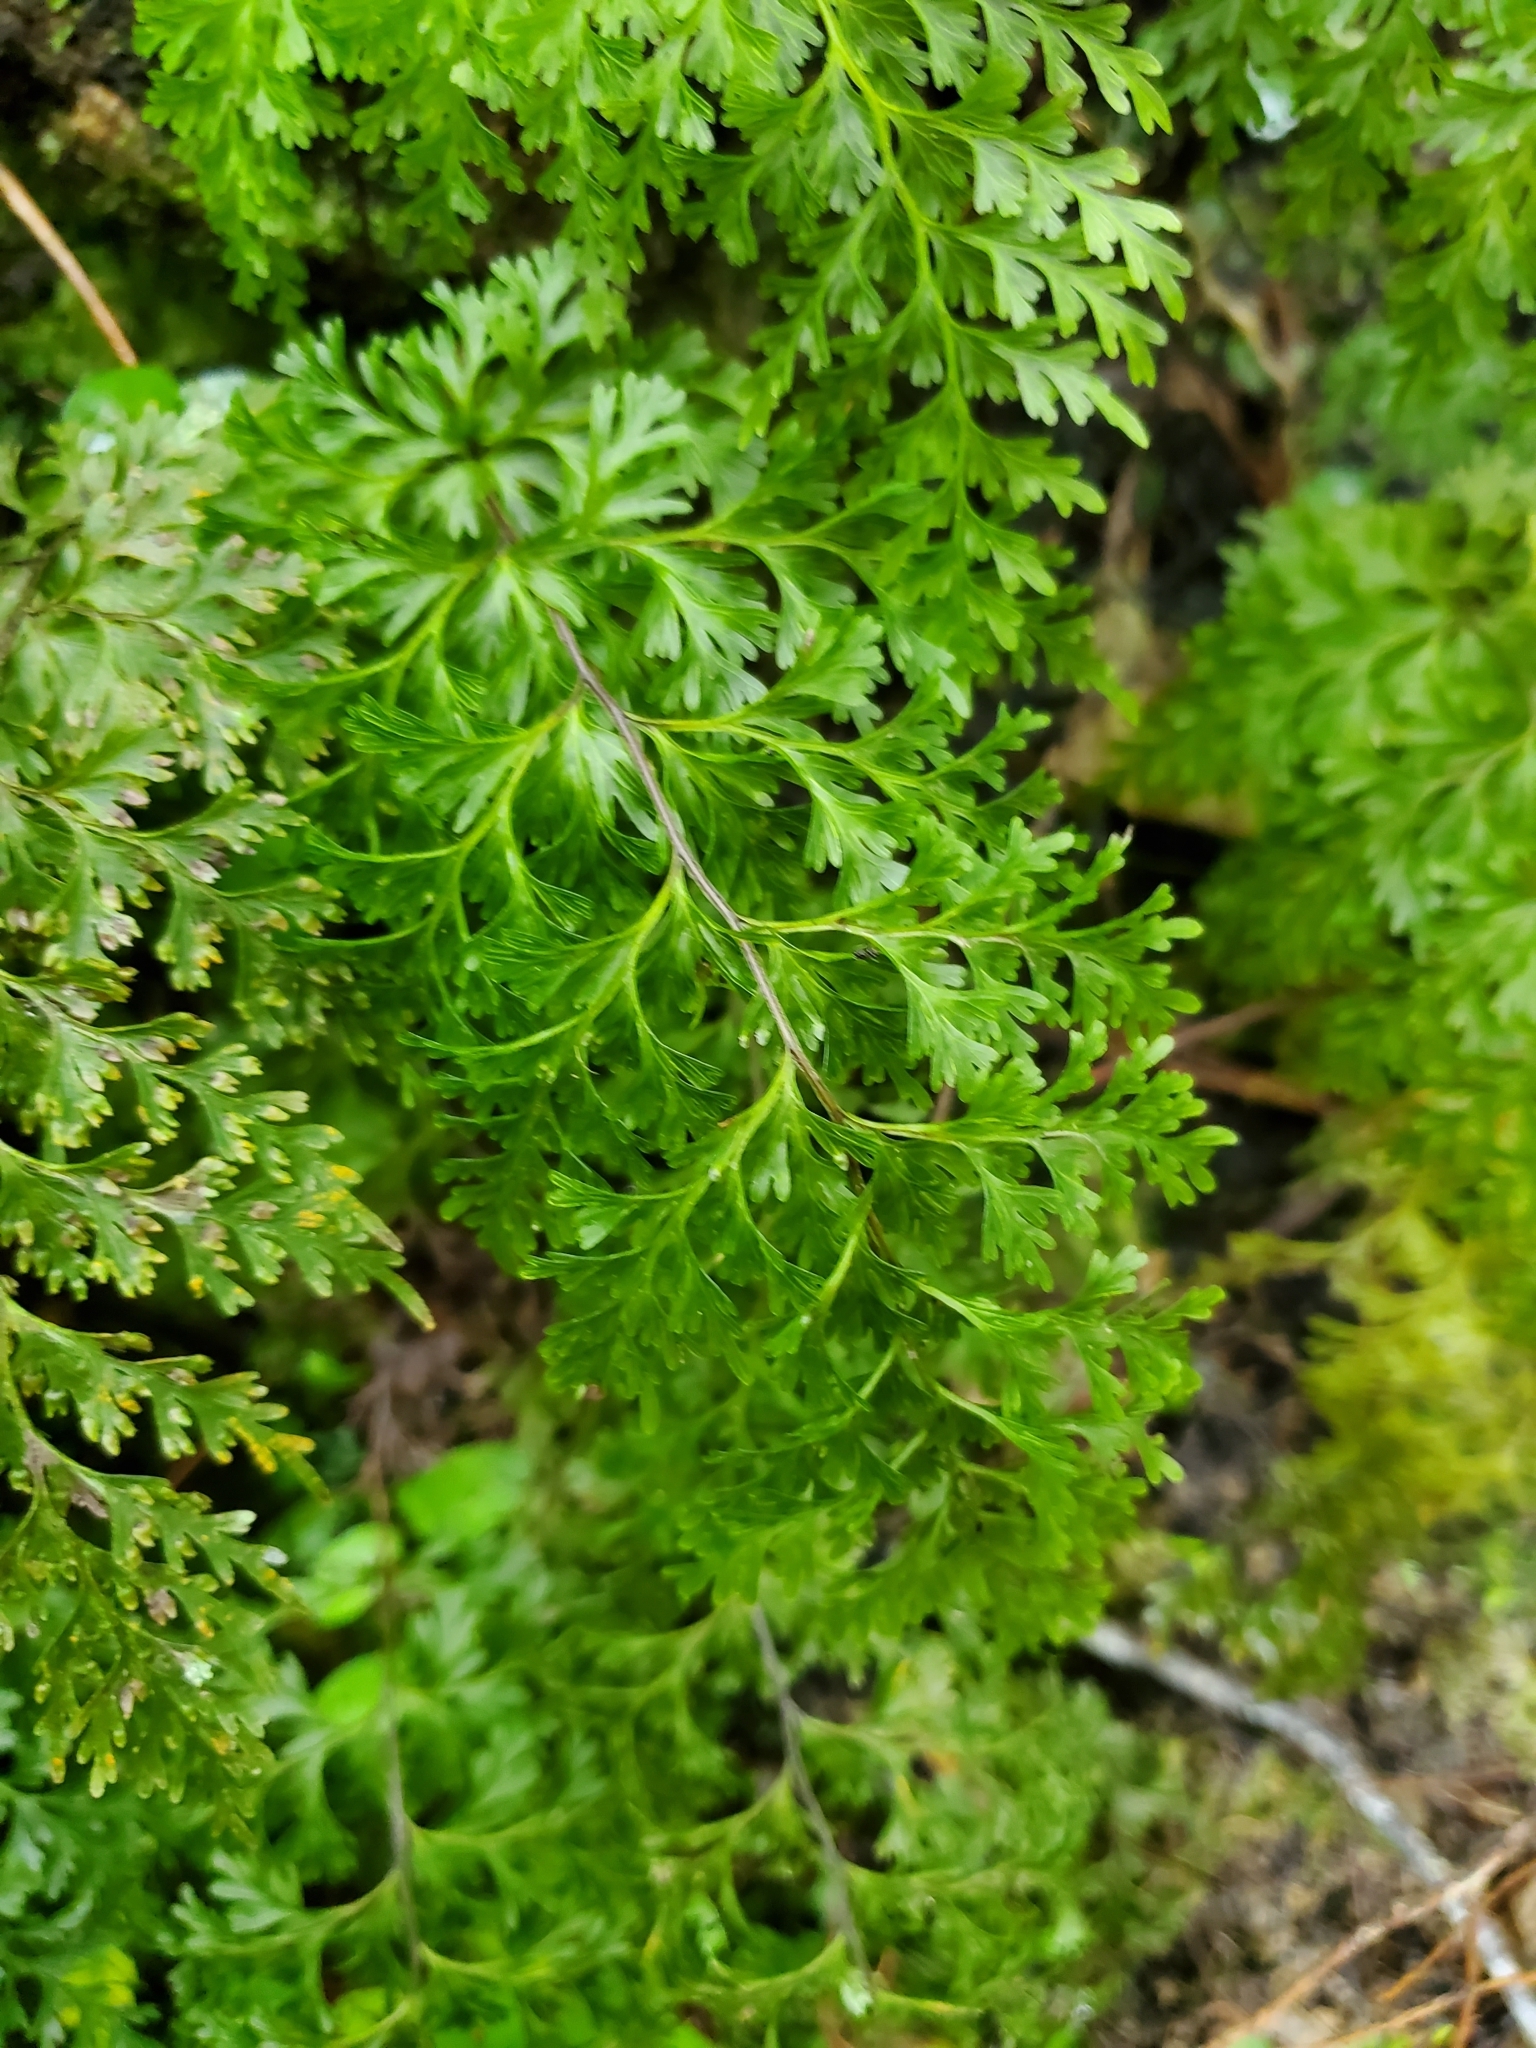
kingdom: Plantae
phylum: Tracheophyta
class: Polypodiopsida
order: Hymenophyllales
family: Hymenophyllaceae
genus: Hymenophyllum
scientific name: Hymenophyllum demissum
